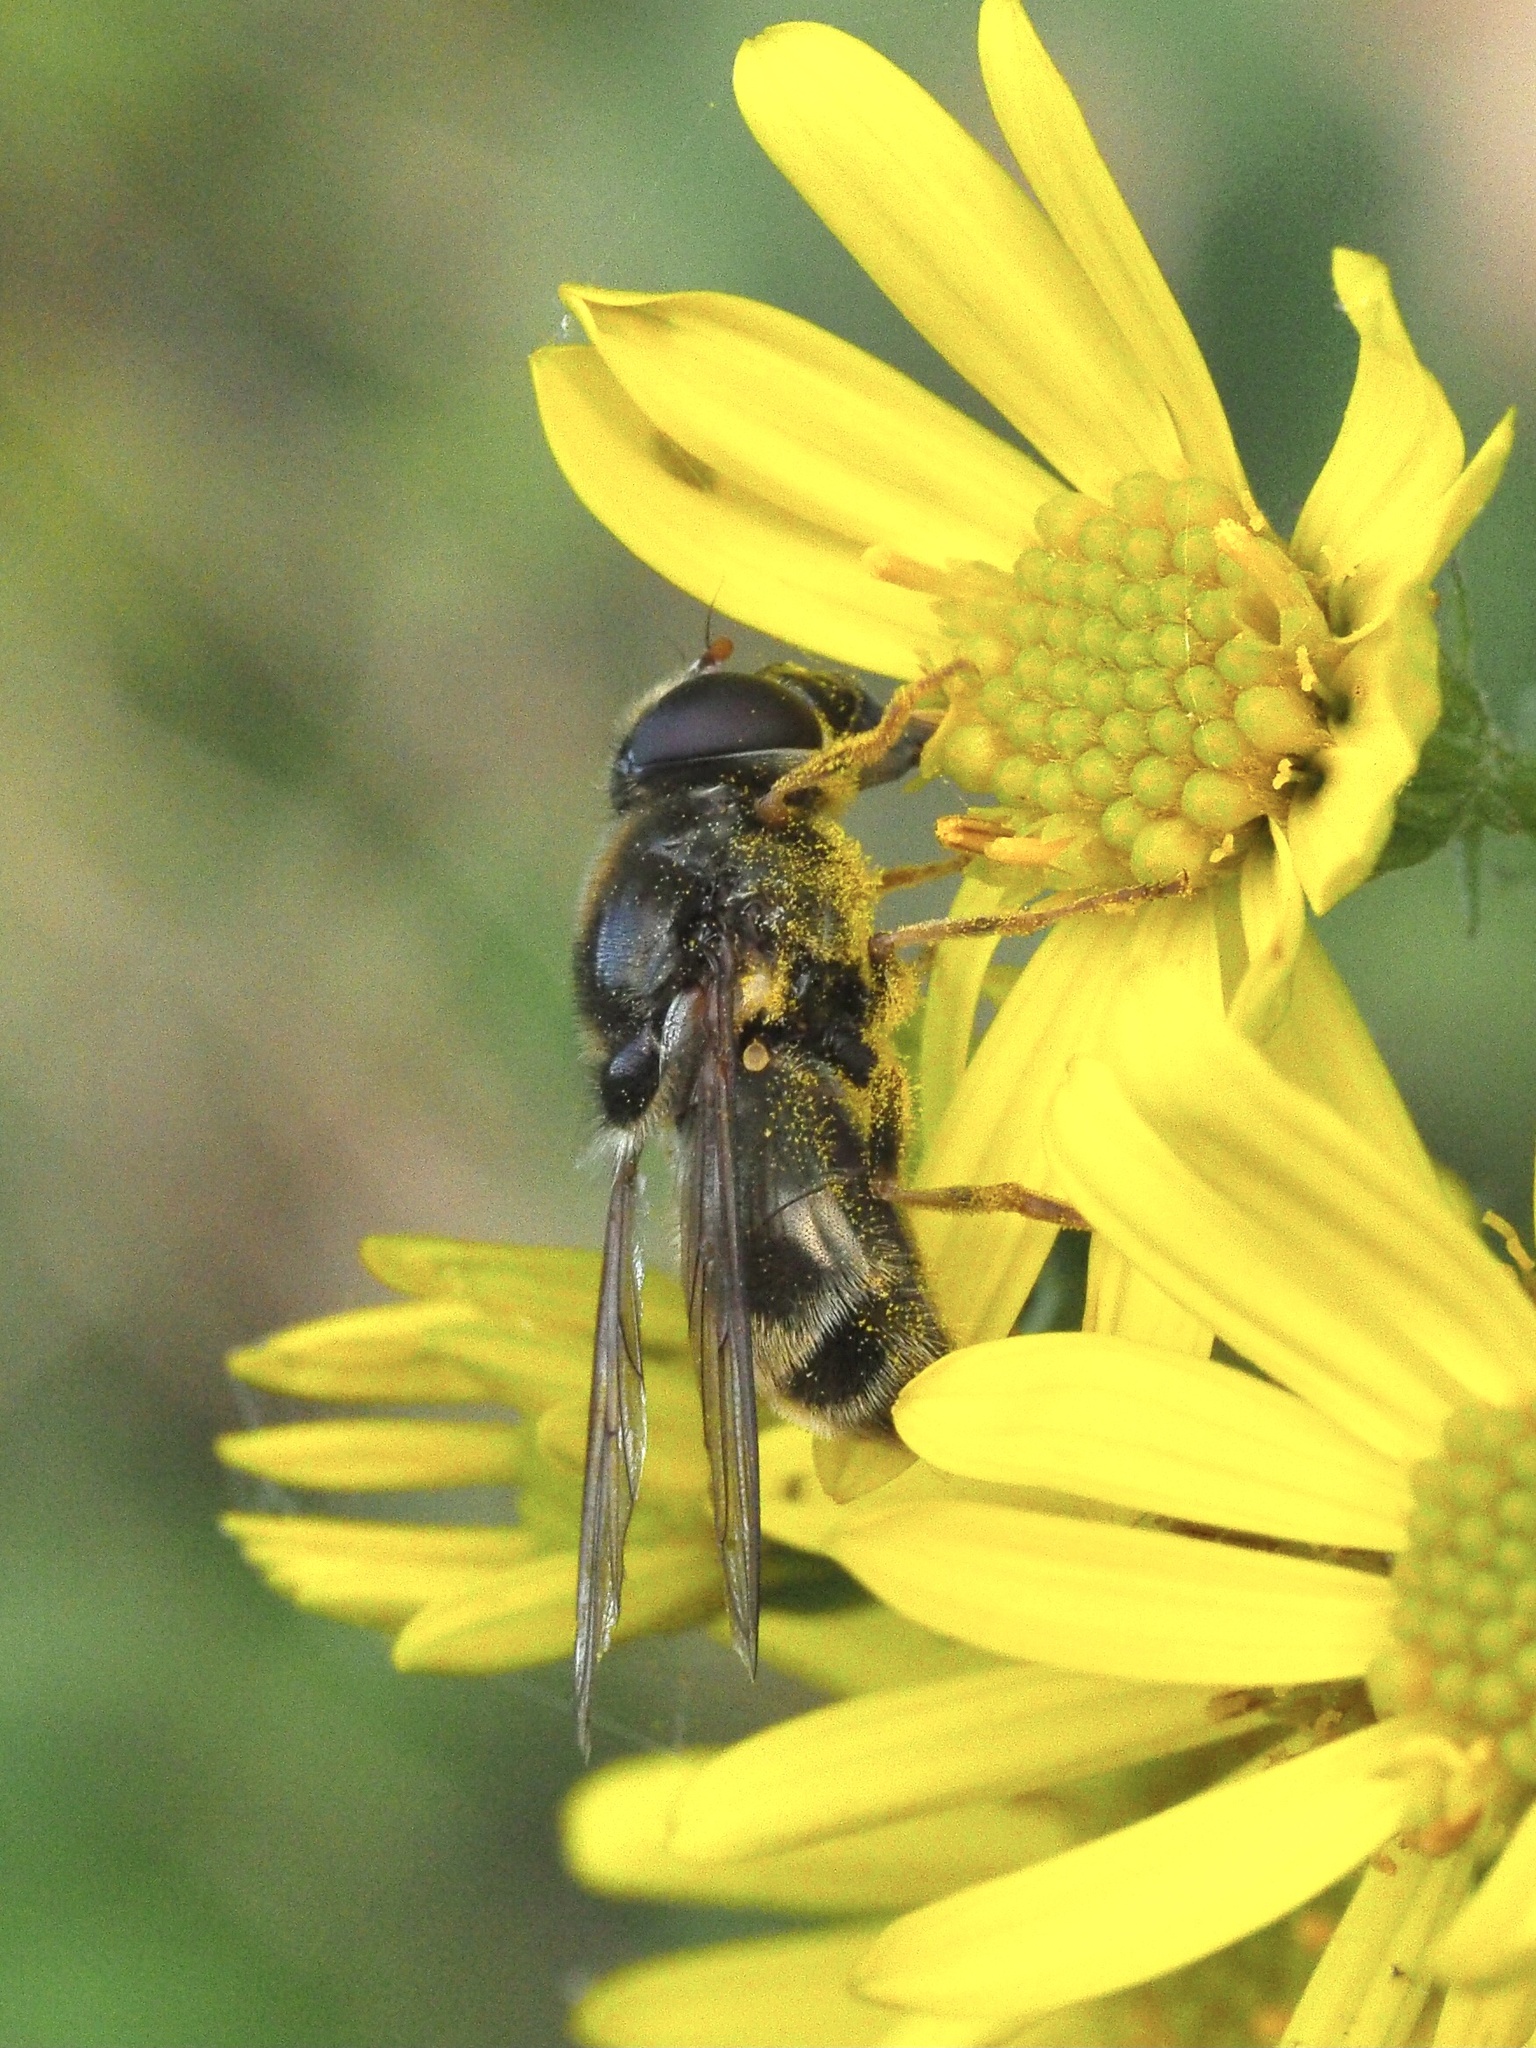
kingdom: Animalia
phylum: Arthropoda
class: Insecta
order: Diptera
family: Syrphidae
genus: Cheilosia
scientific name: Cheilosia himantopus
